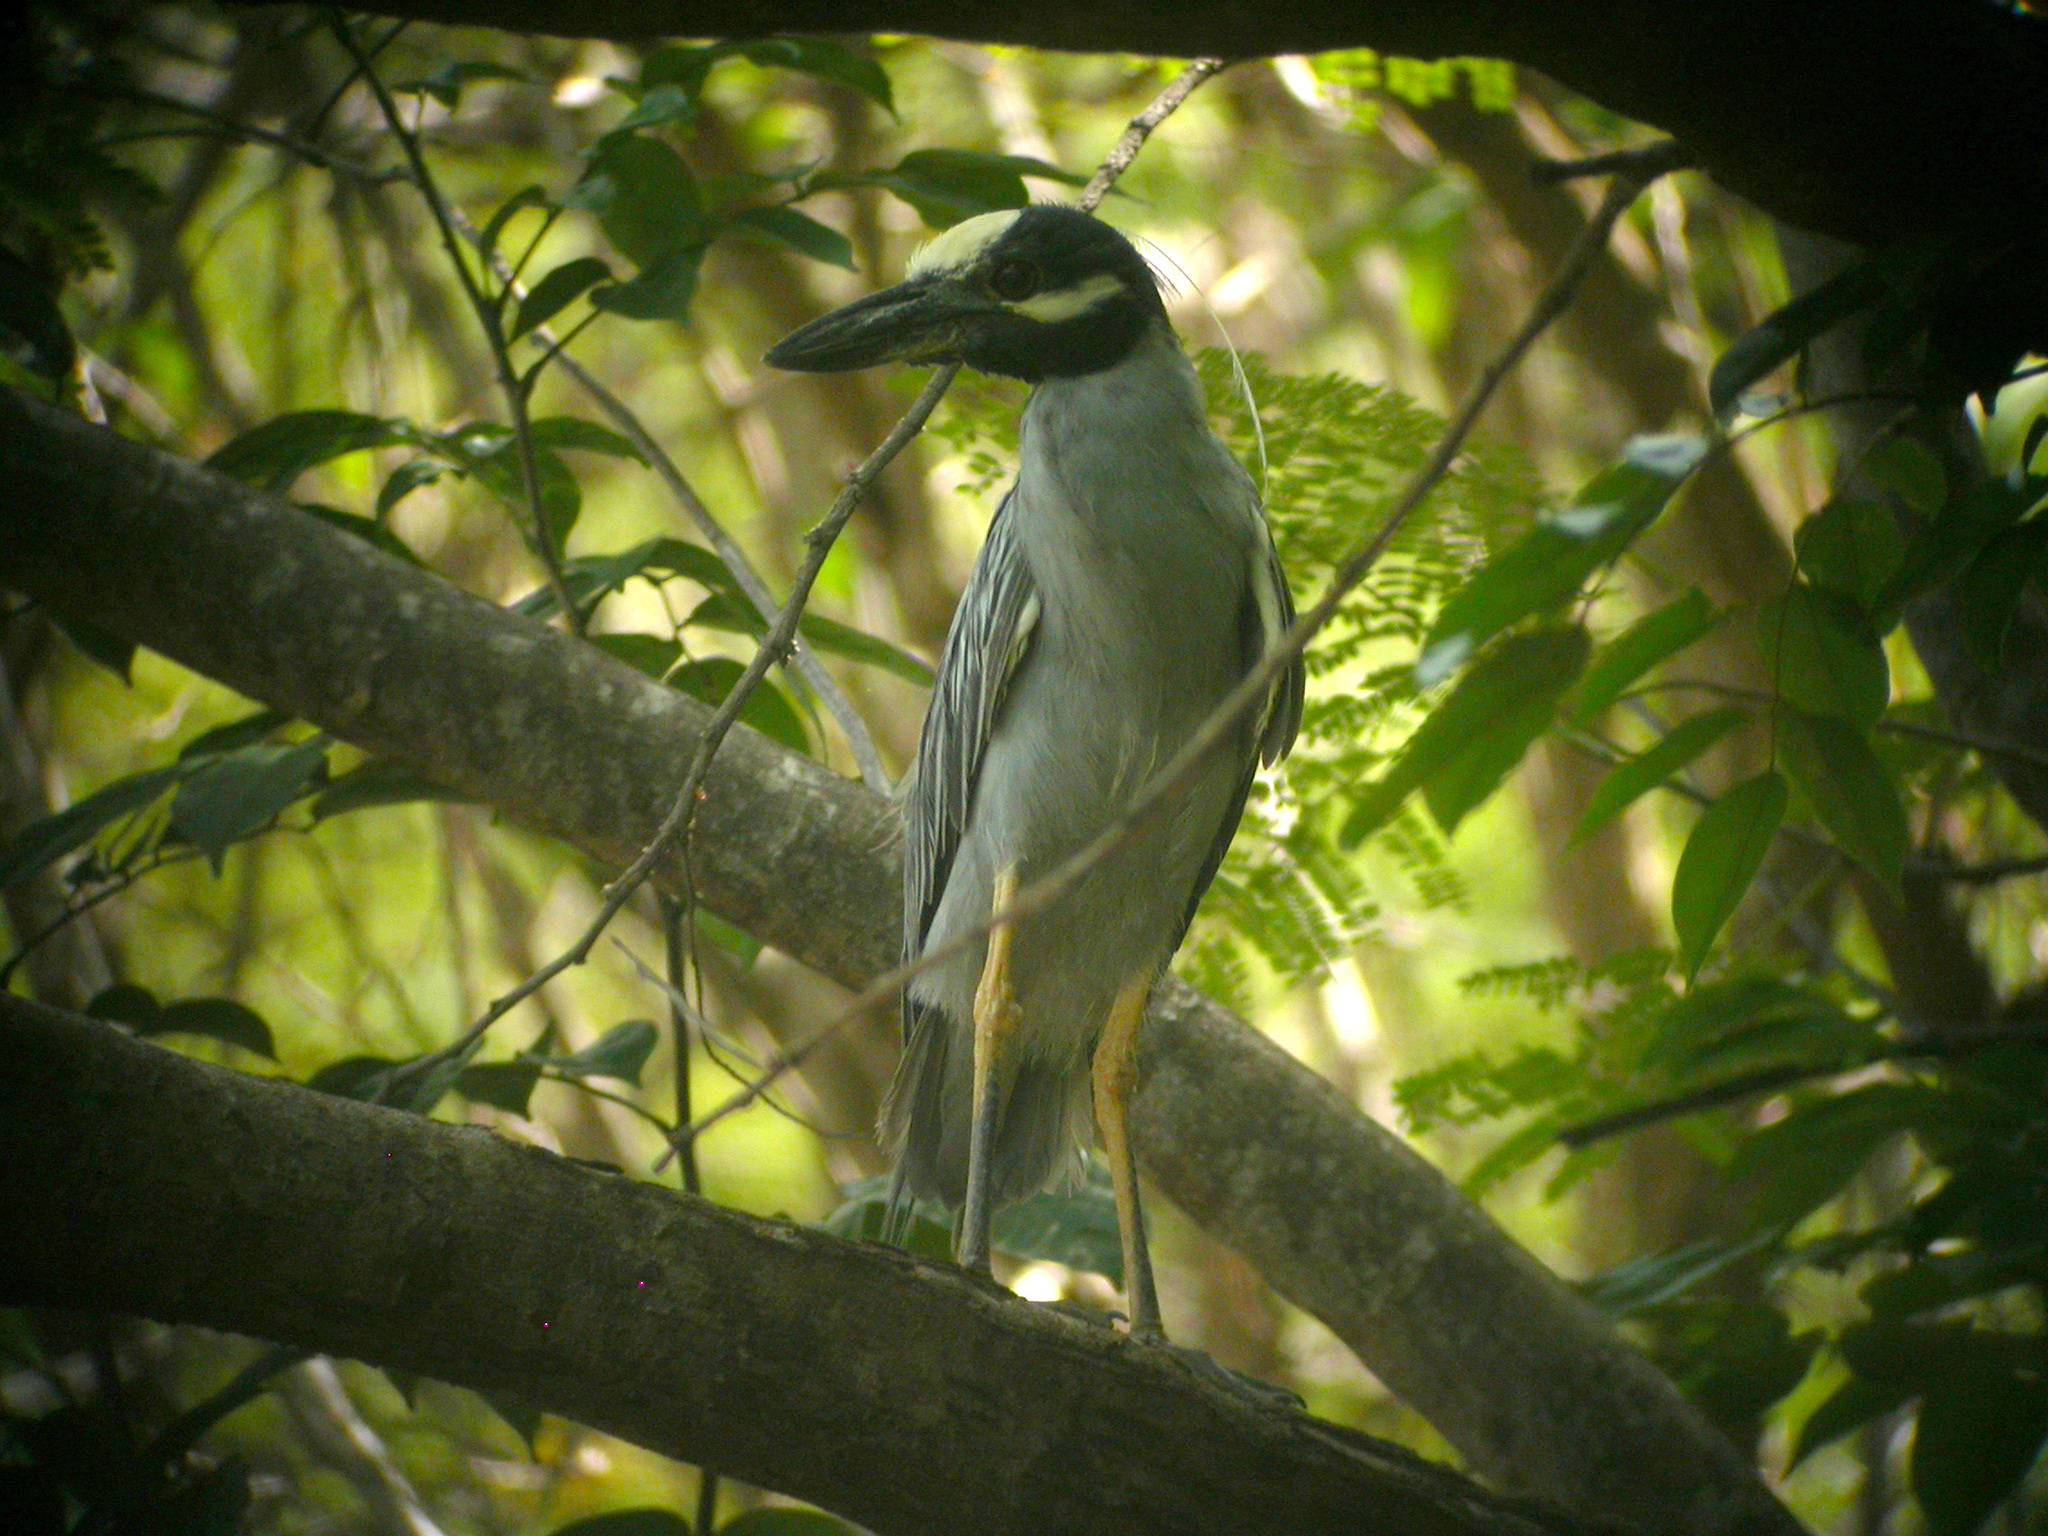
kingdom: Animalia
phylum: Chordata
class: Aves
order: Pelecaniformes
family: Ardeidae
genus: Nyctanassa
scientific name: Nyctanassa violacea
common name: Yellow-crowned night heron
